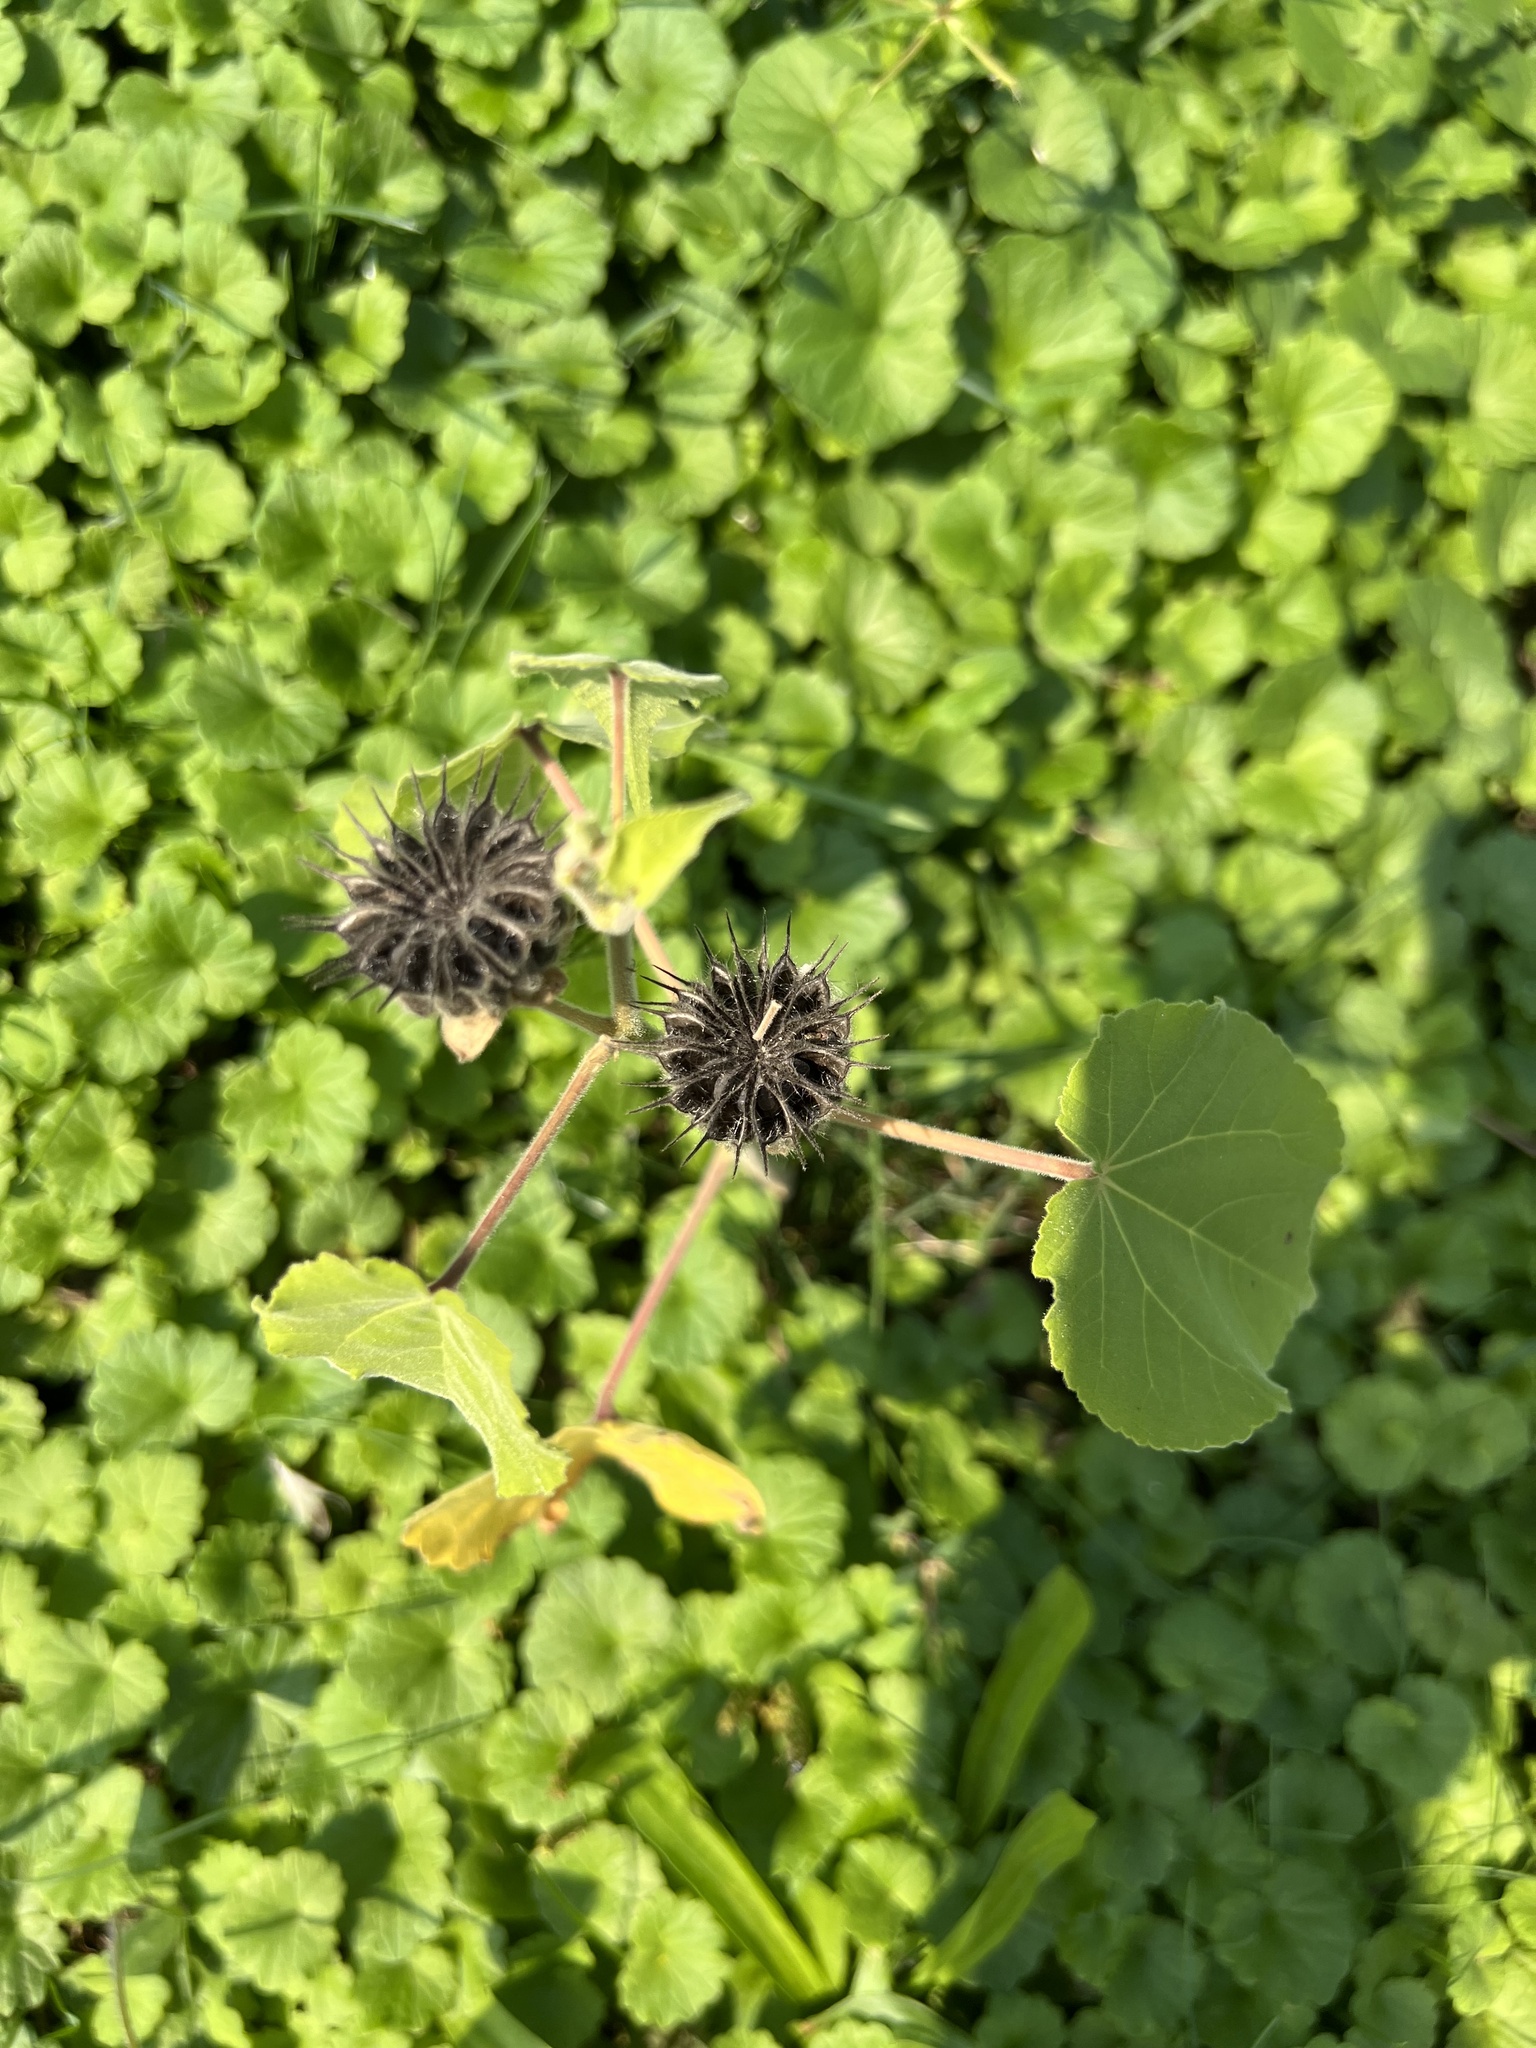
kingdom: Plantae
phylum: Tracheophyta
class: Magnoliopsida
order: Malvales
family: Malvaceae
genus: Abutilon
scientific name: Abutilon theophrasti
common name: Velvetleaf
